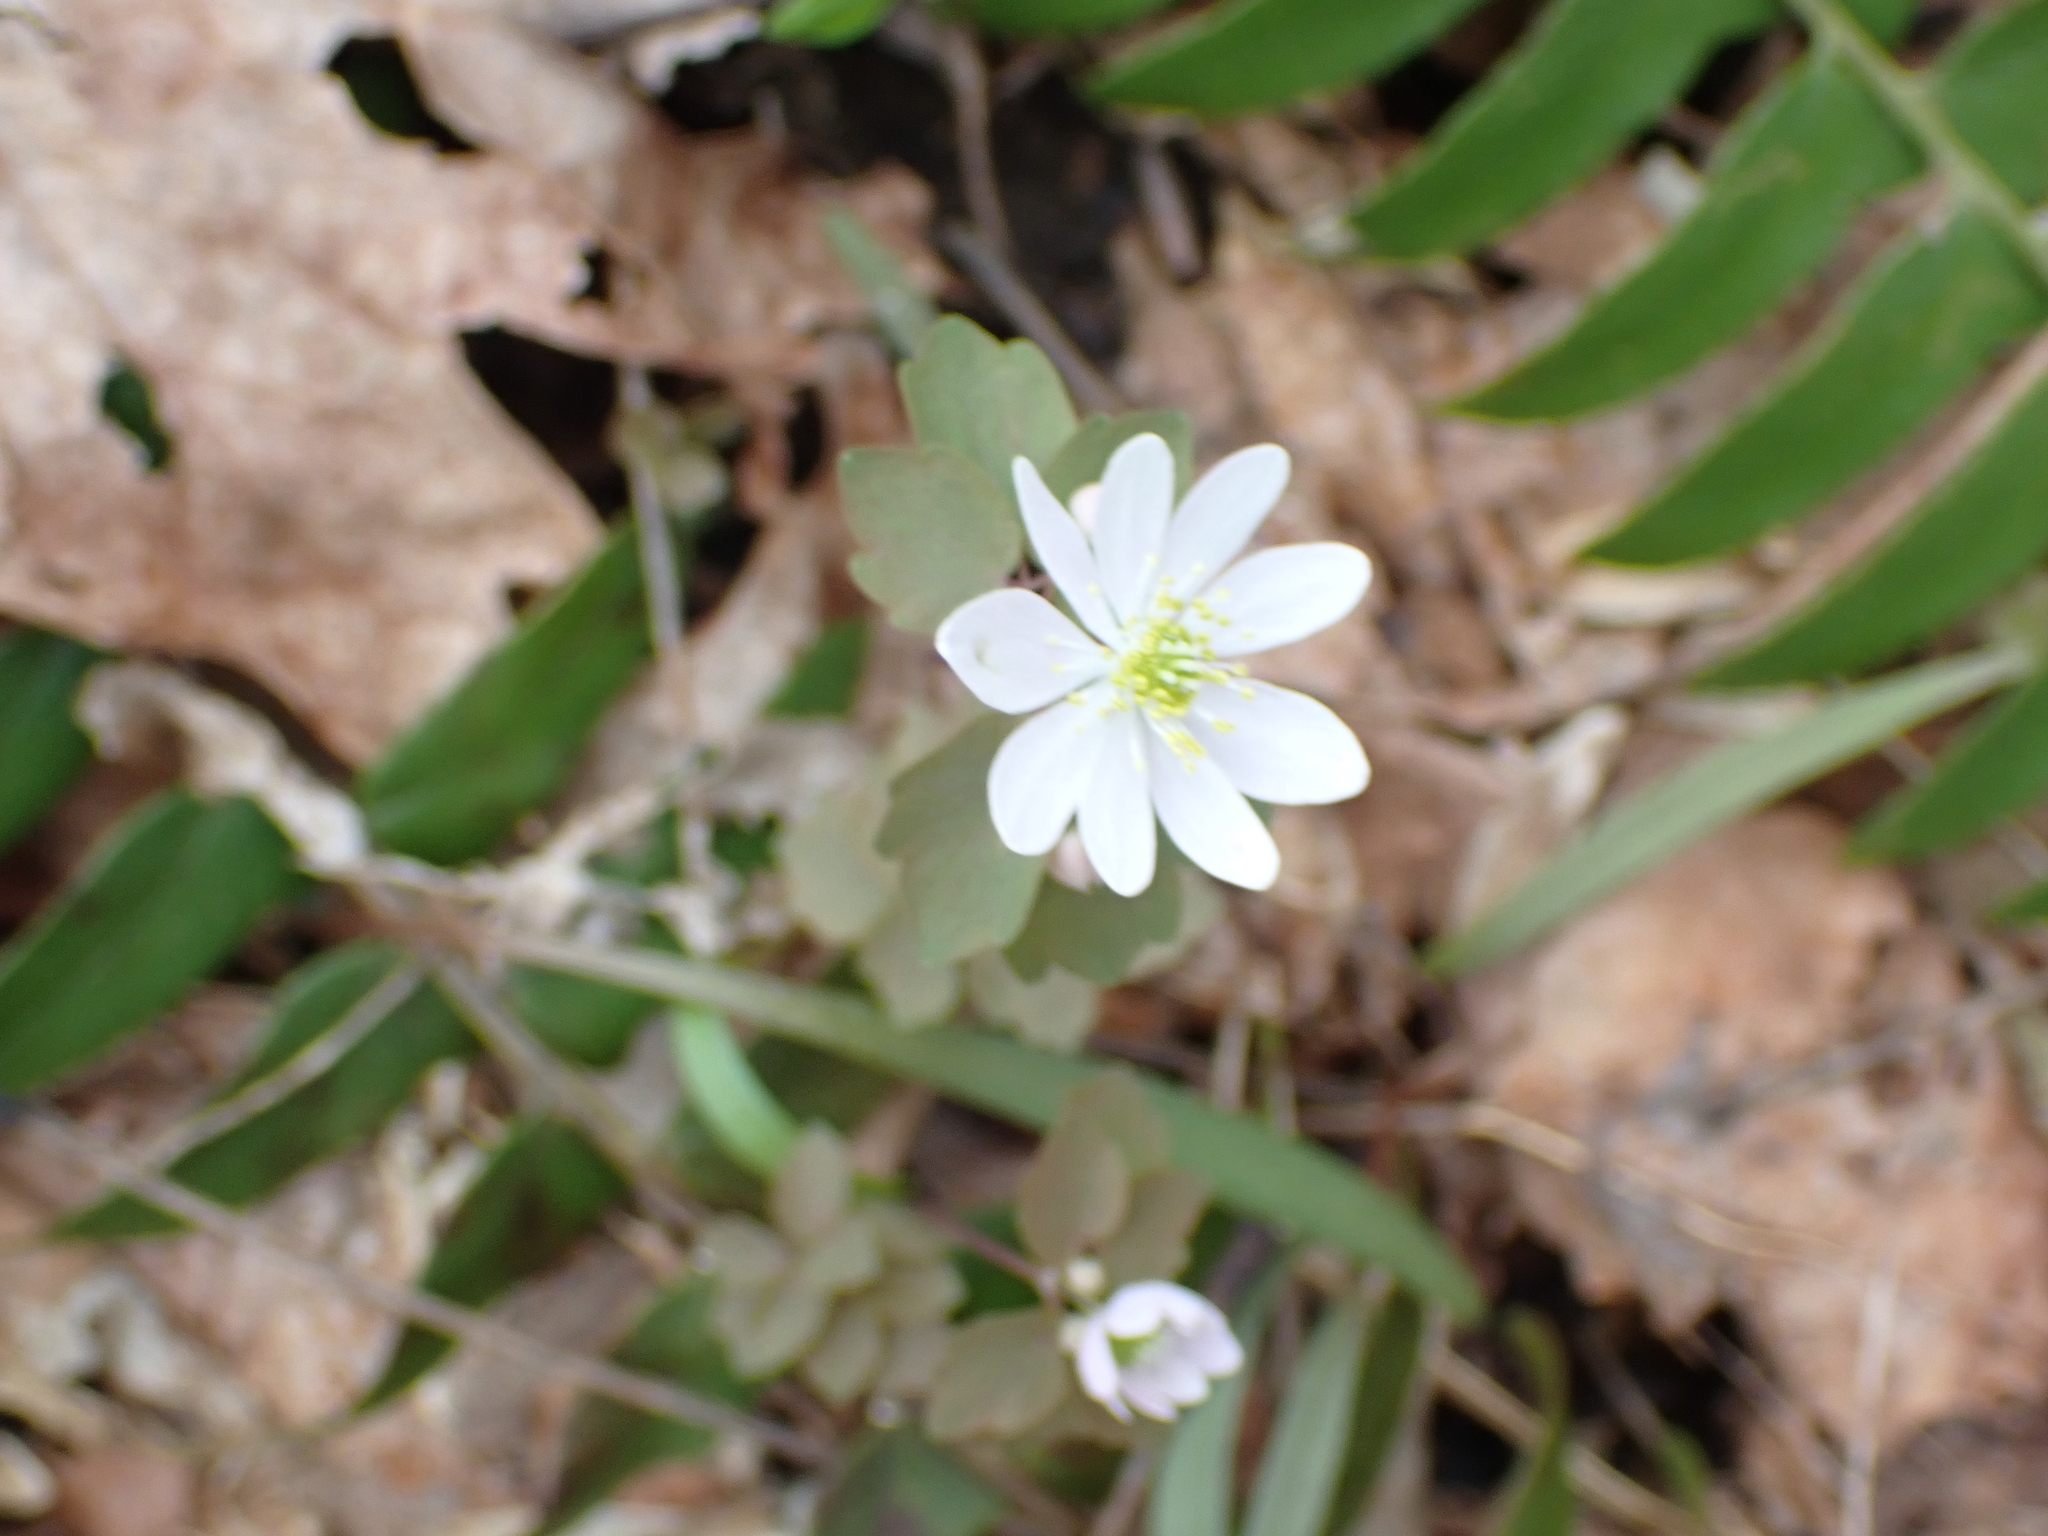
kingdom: Plantae
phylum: Tracheophyta
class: Magnoliopsida
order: Ranunculales
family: Ranunculaceae
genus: Thalictrum
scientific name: Thalictrum thalictroides
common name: Rue-anemone
